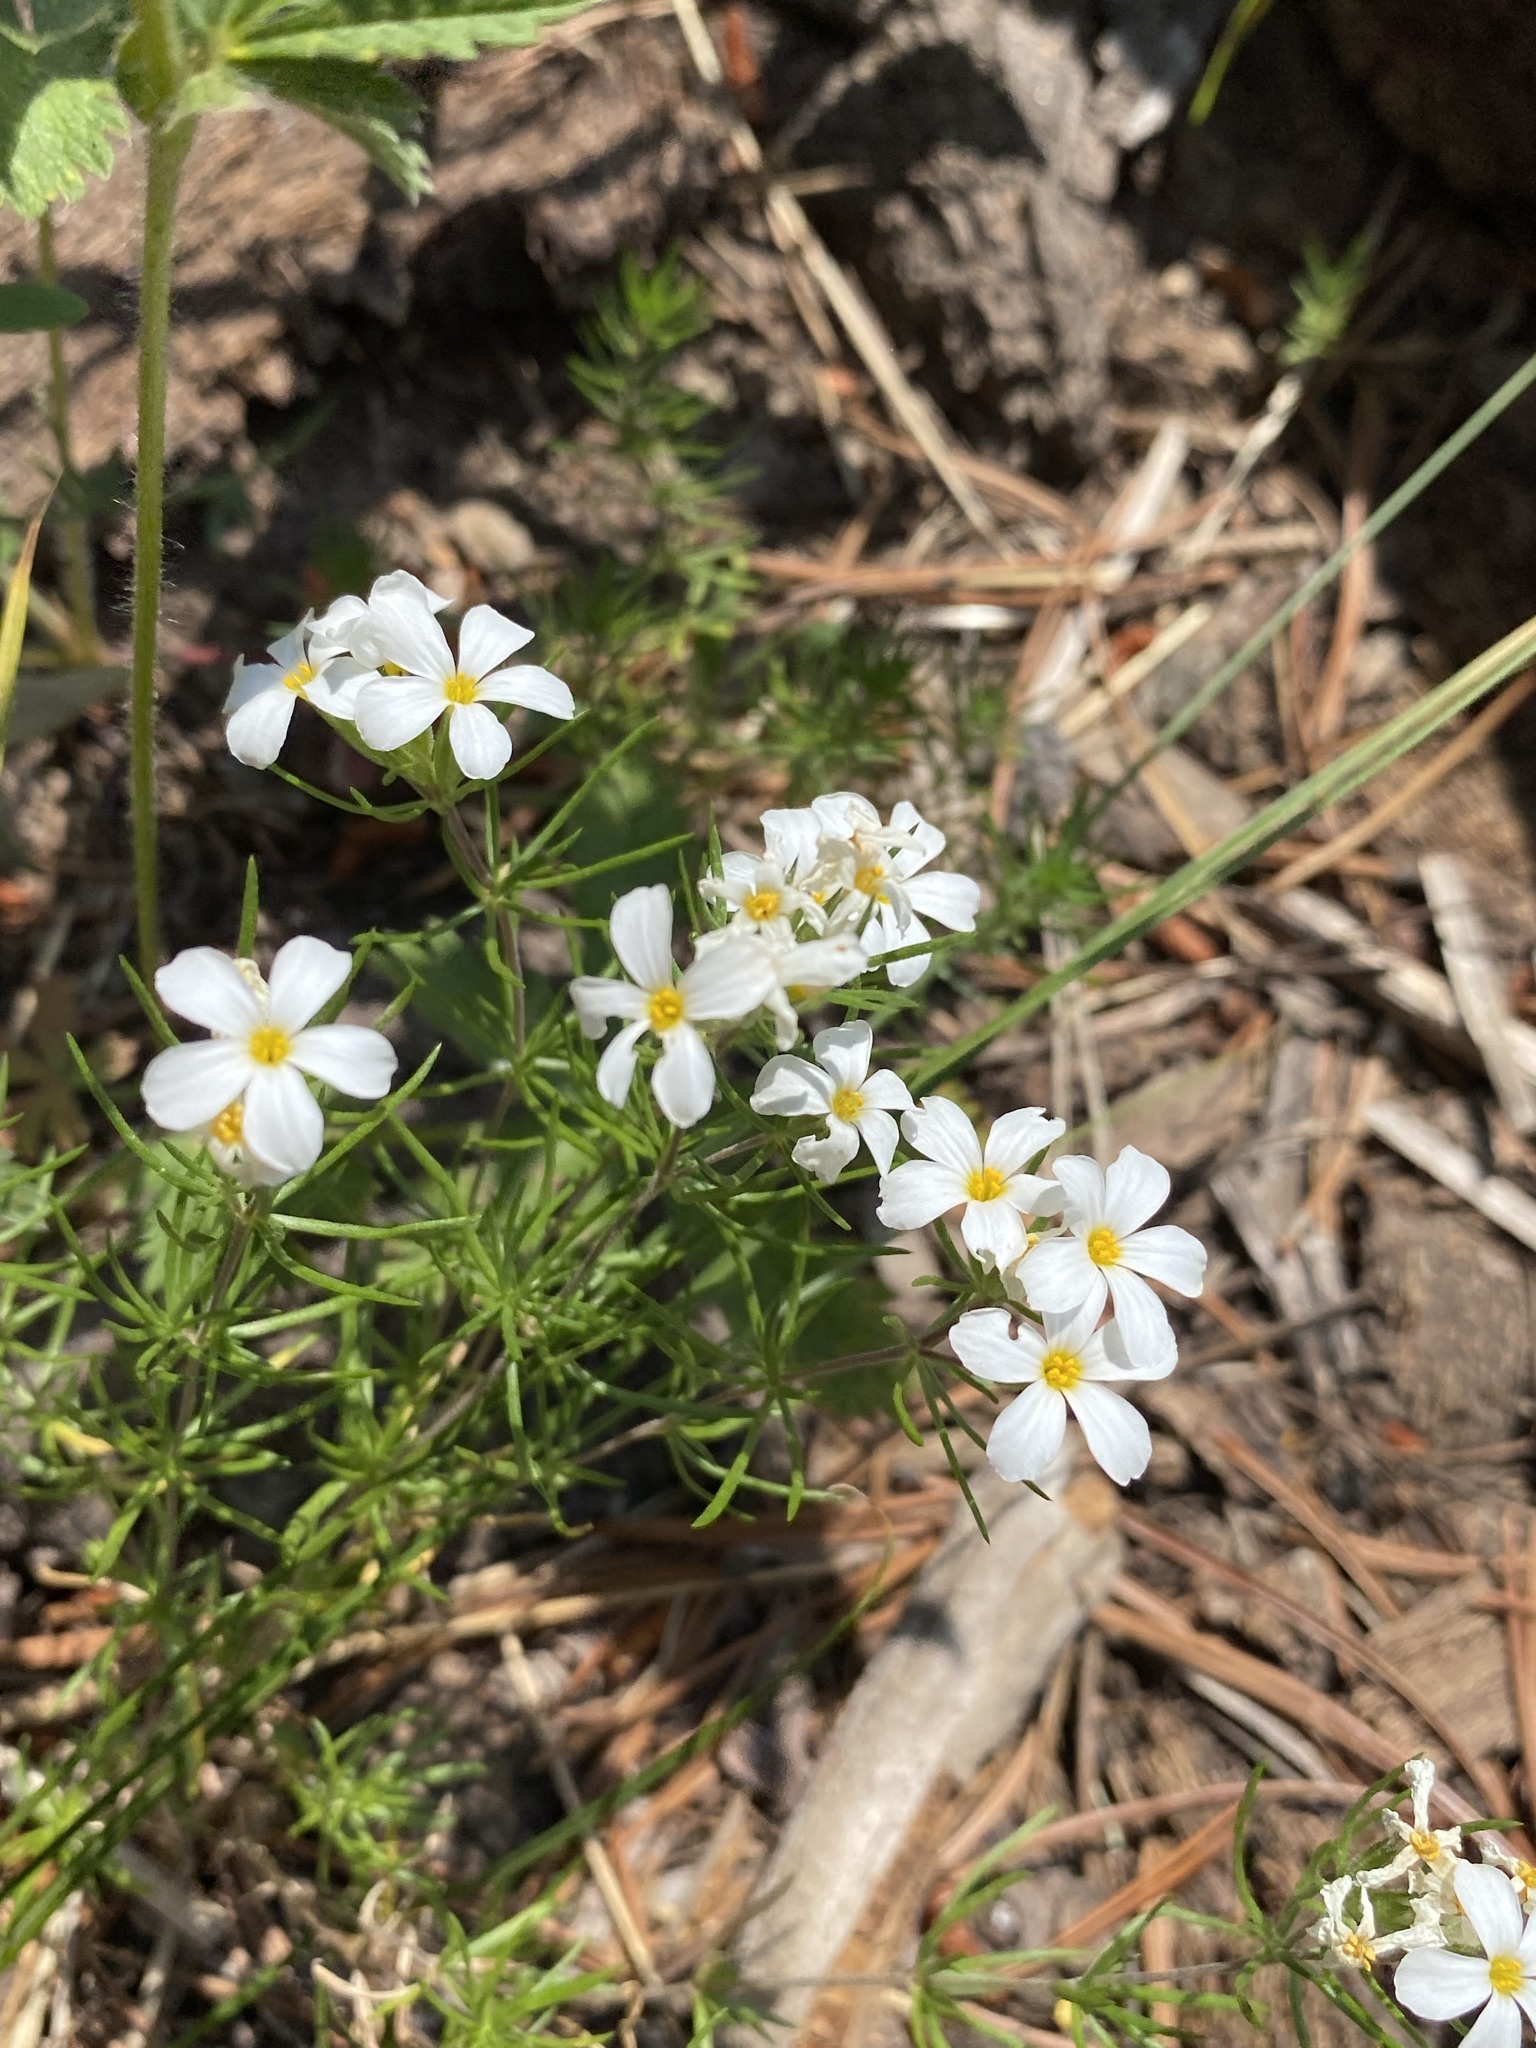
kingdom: Plantae
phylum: Tracheophyta
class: Magnoliopsida
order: Ericales
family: Polemoniaceae
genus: Leptosiphon
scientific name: Leptosiphon nuttallii
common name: Nuttall's linanthus
